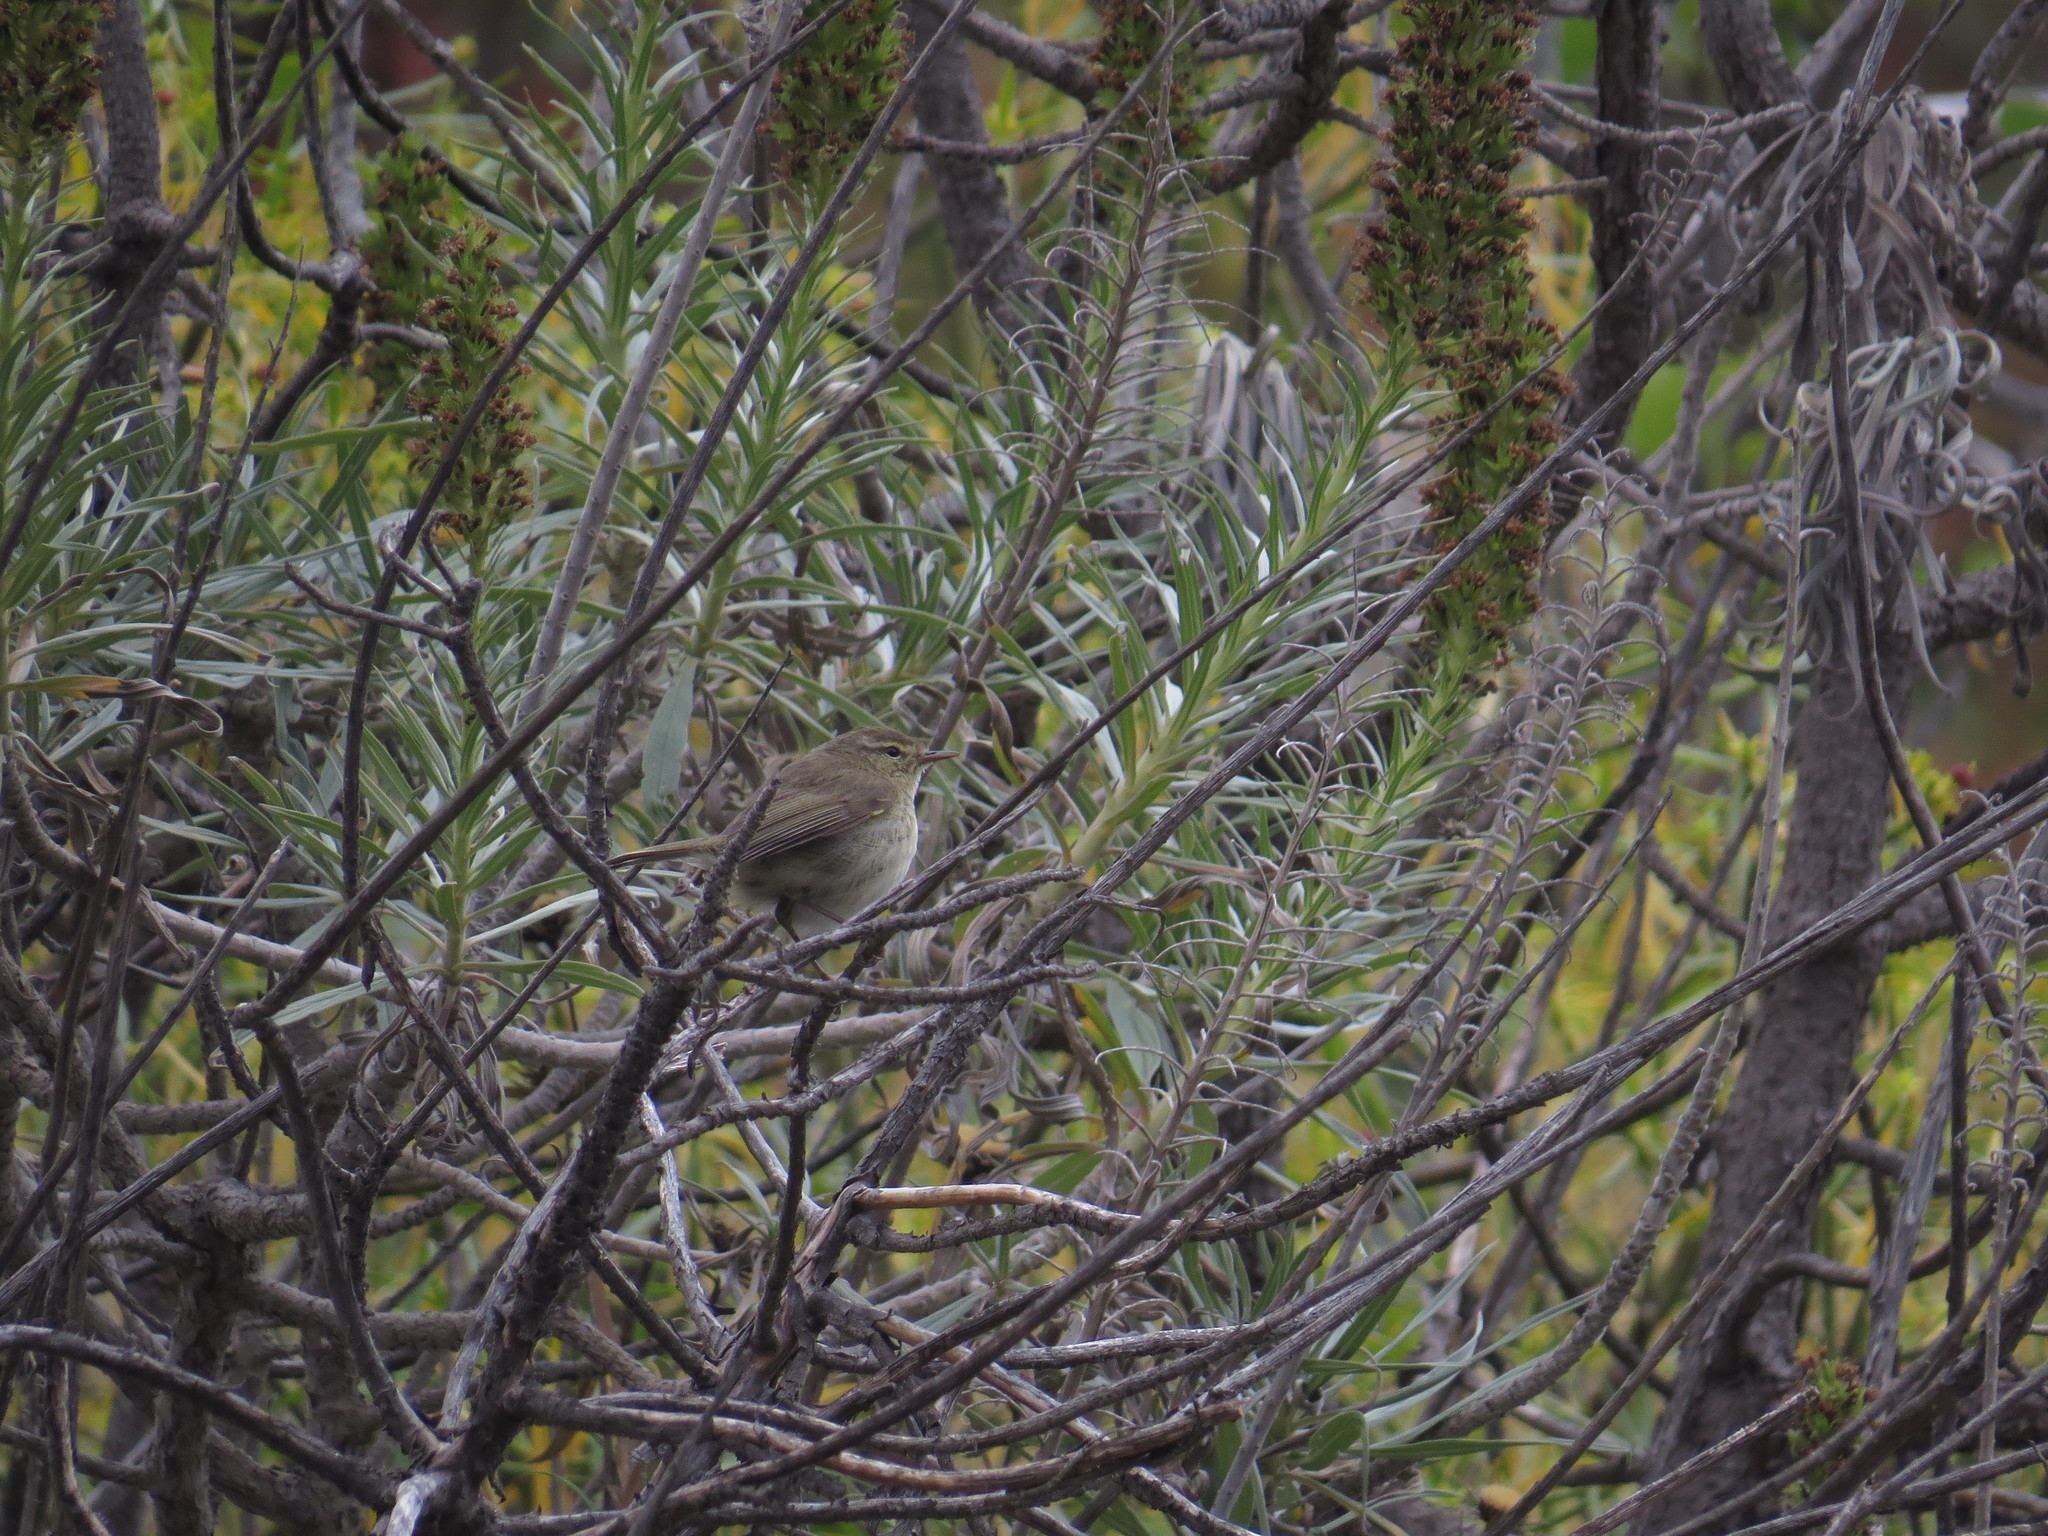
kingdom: Animalia
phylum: Chordata
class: Aves
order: Passeriformes
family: Phylloscopidae
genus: Phylloscopus
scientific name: Phylloscopus canariensis
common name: Canary islands chiffchaff
